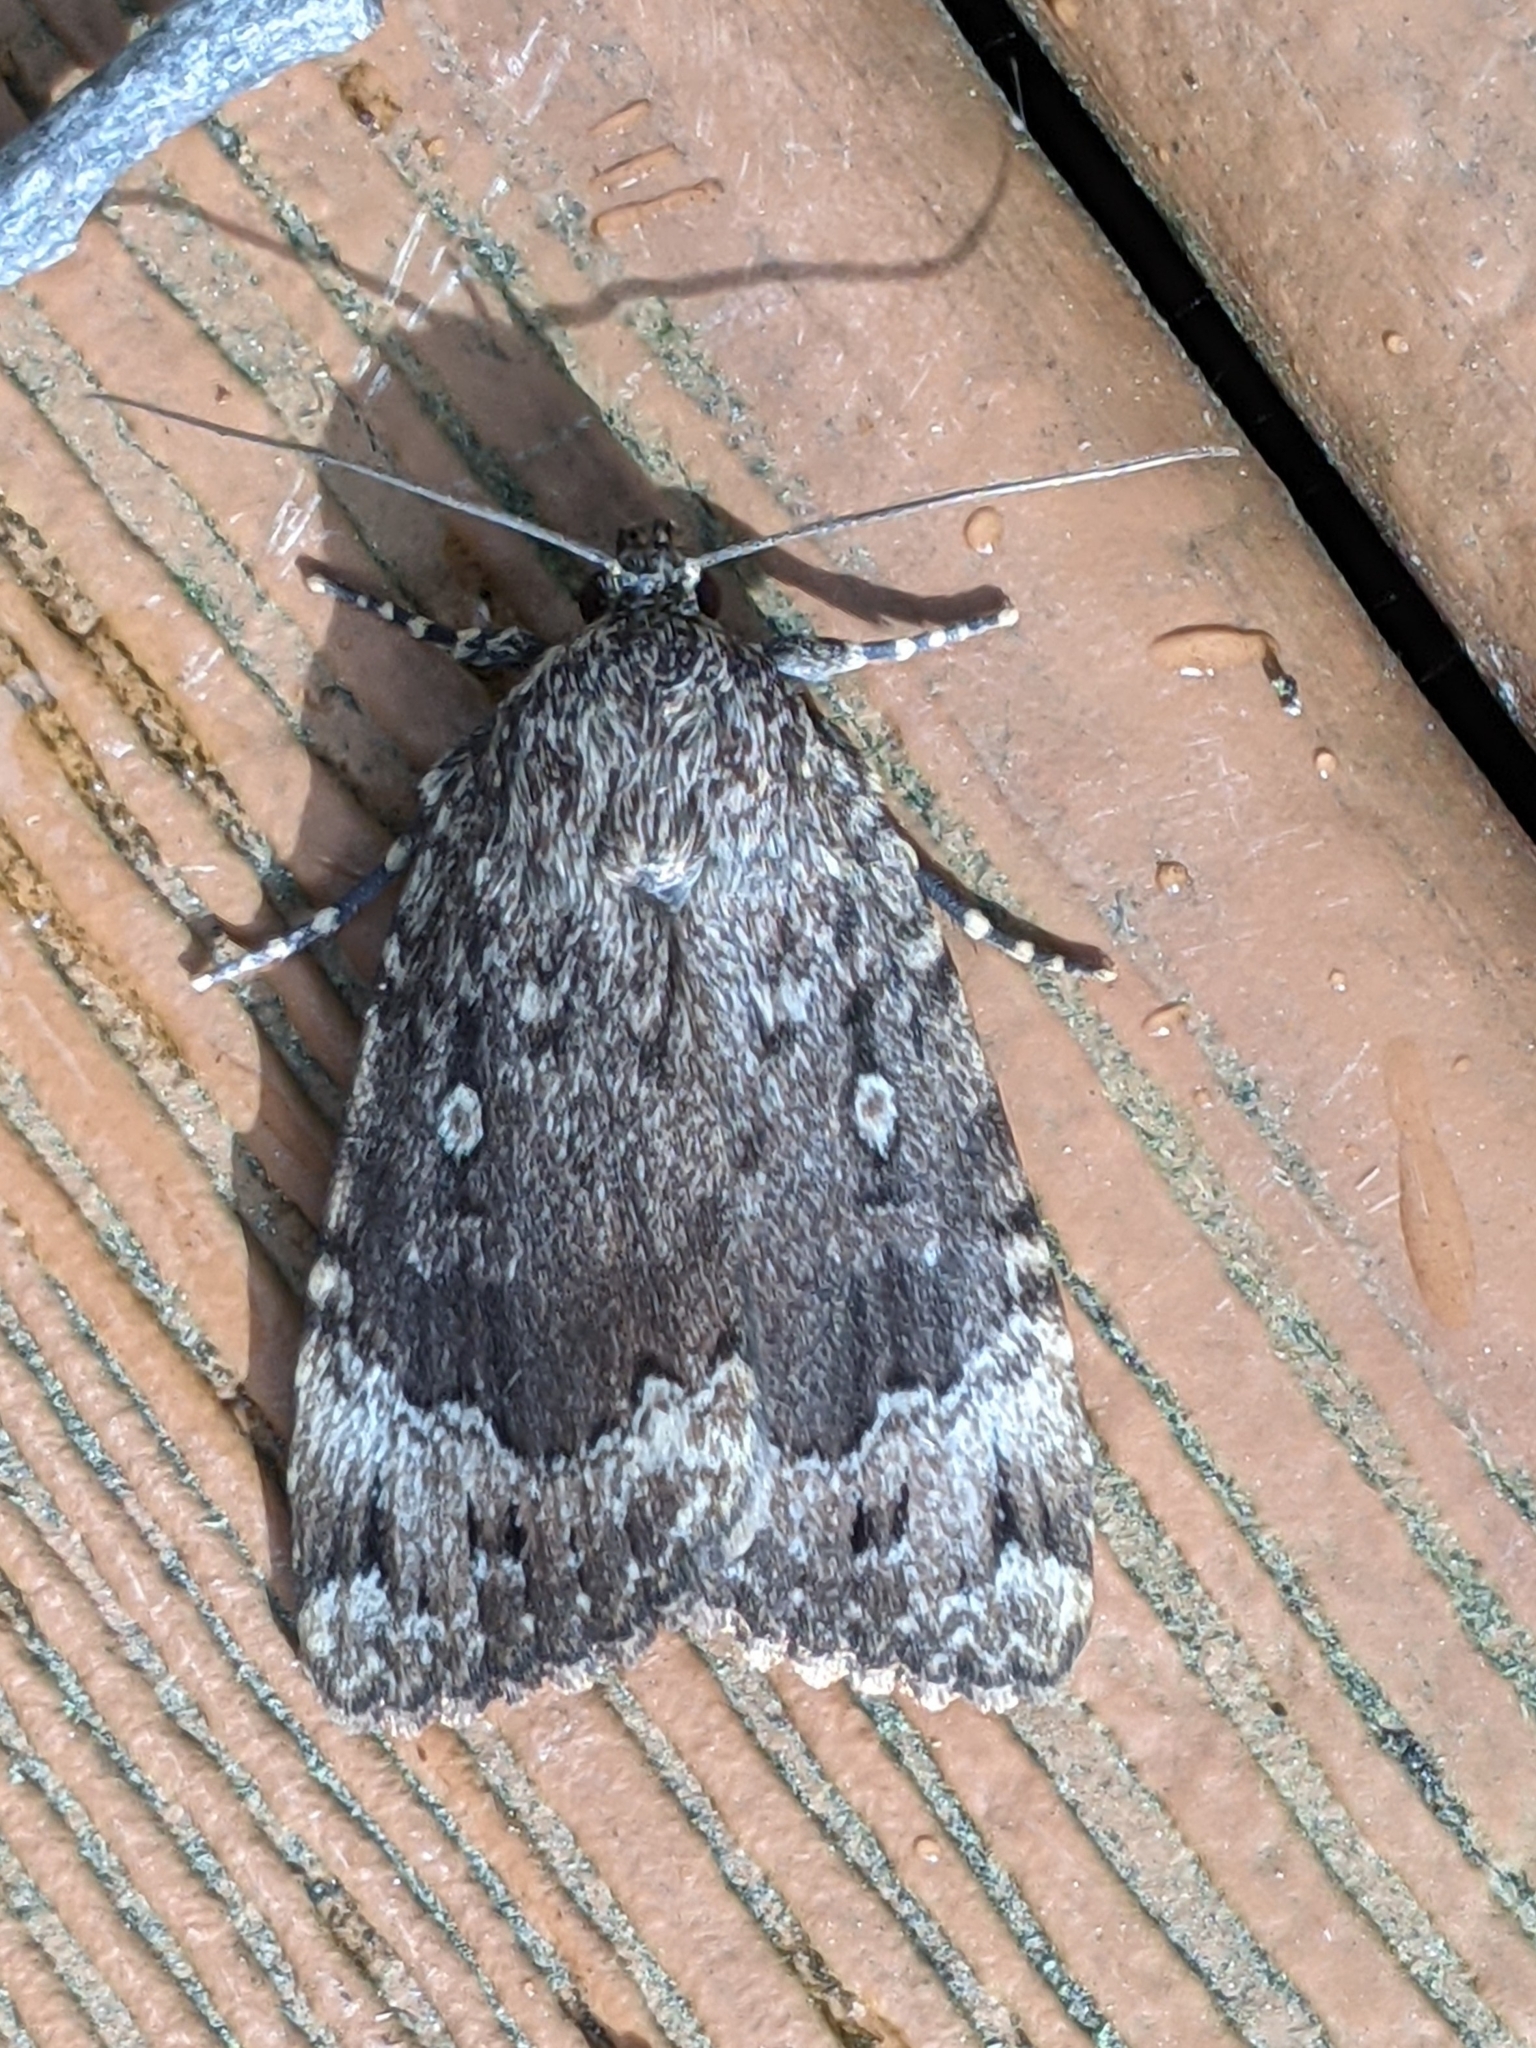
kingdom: Animalia
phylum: Arthropoda
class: Insecta
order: Lepidoptera
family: Noctuidae
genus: Amphipyra
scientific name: Amphipyra pyramidoides
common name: American copper underwing
